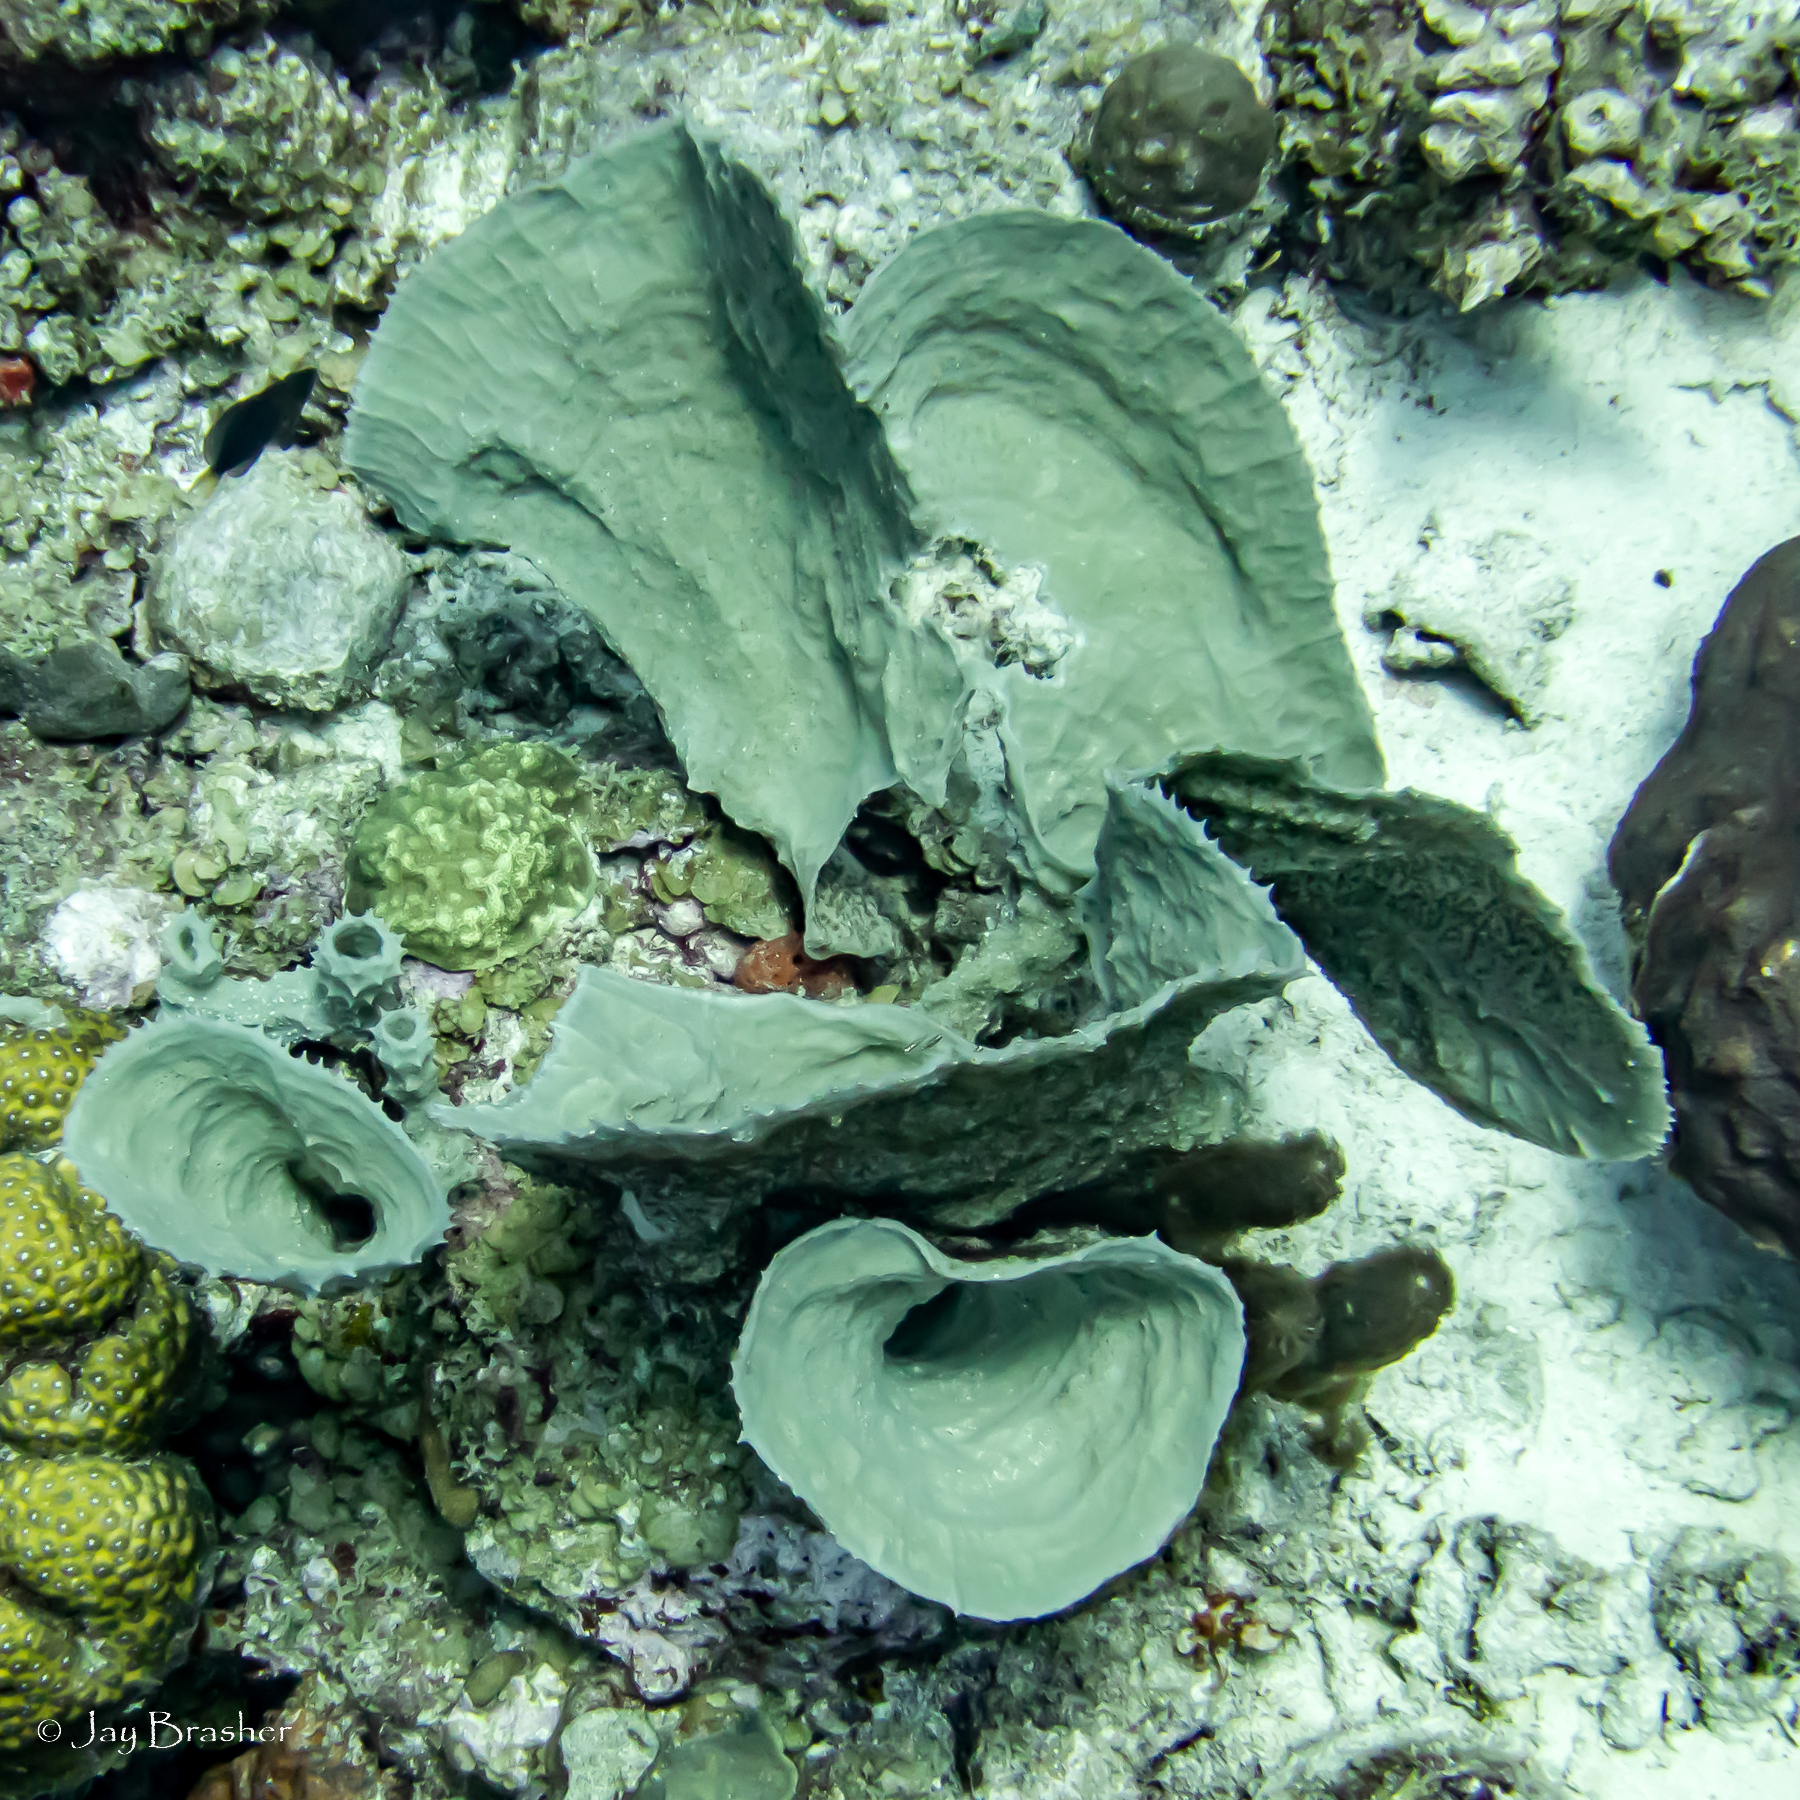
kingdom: Animalia
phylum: Porifera
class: Demospongiae
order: Haplosclerida
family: Callyspongiidae
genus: Callyspongia
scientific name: Callyspongia aculeata
